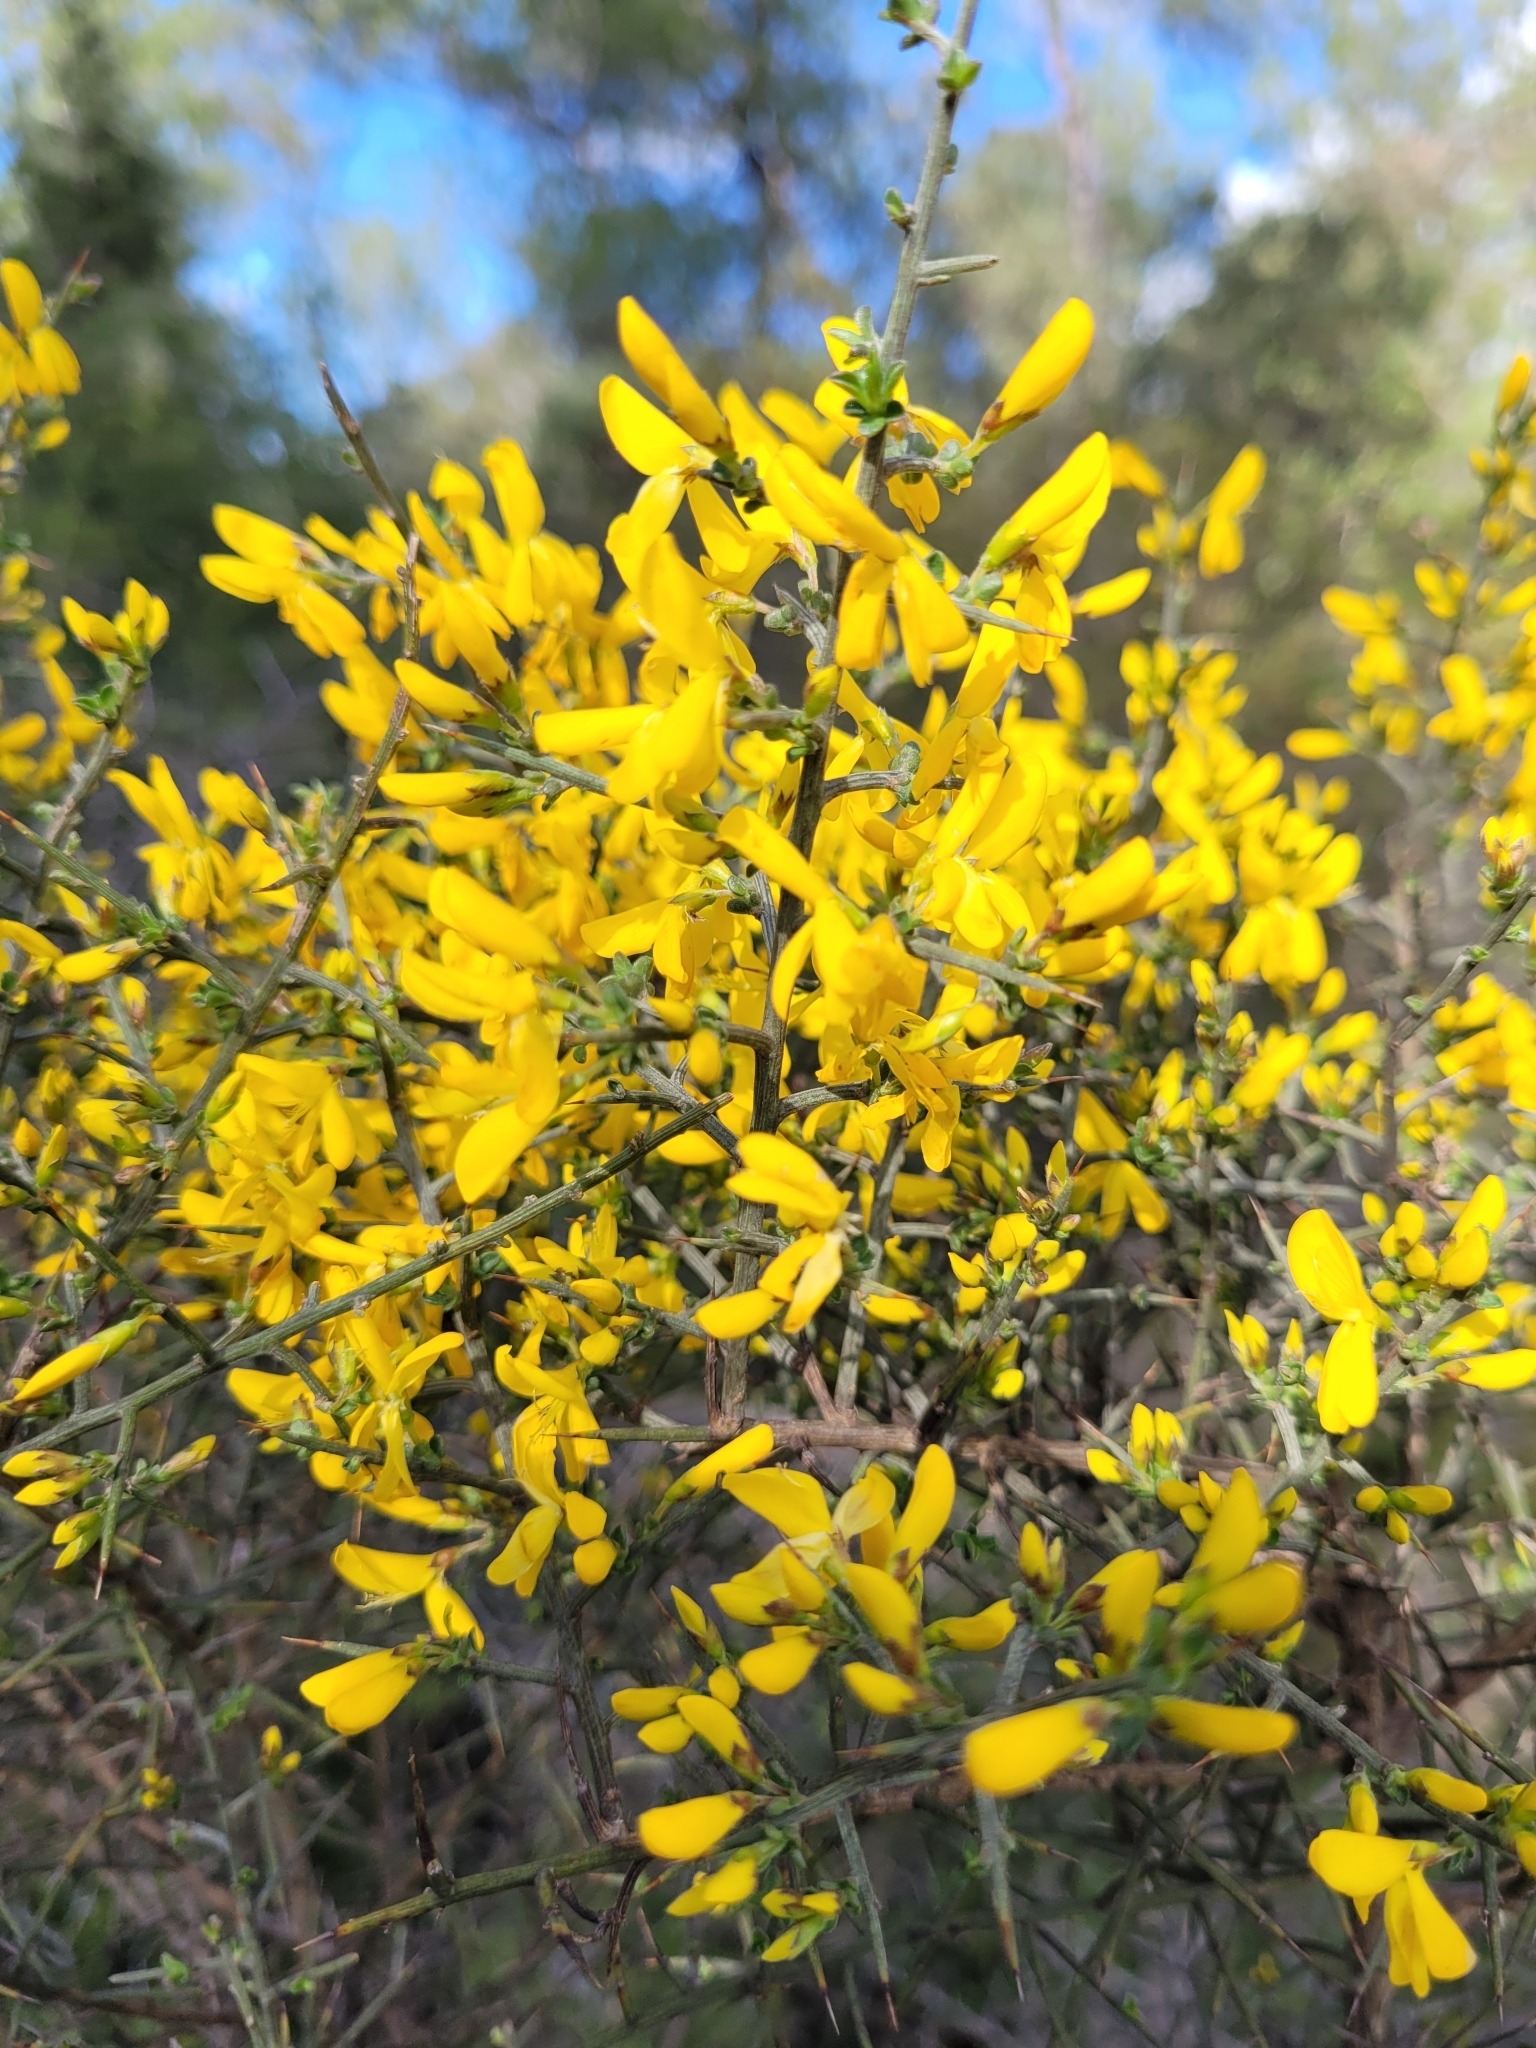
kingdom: Plantae
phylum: Tracheophyta
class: Magnoliopsida
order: Fabales
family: Fabaceae
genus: Genista
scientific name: Genista scorpius
